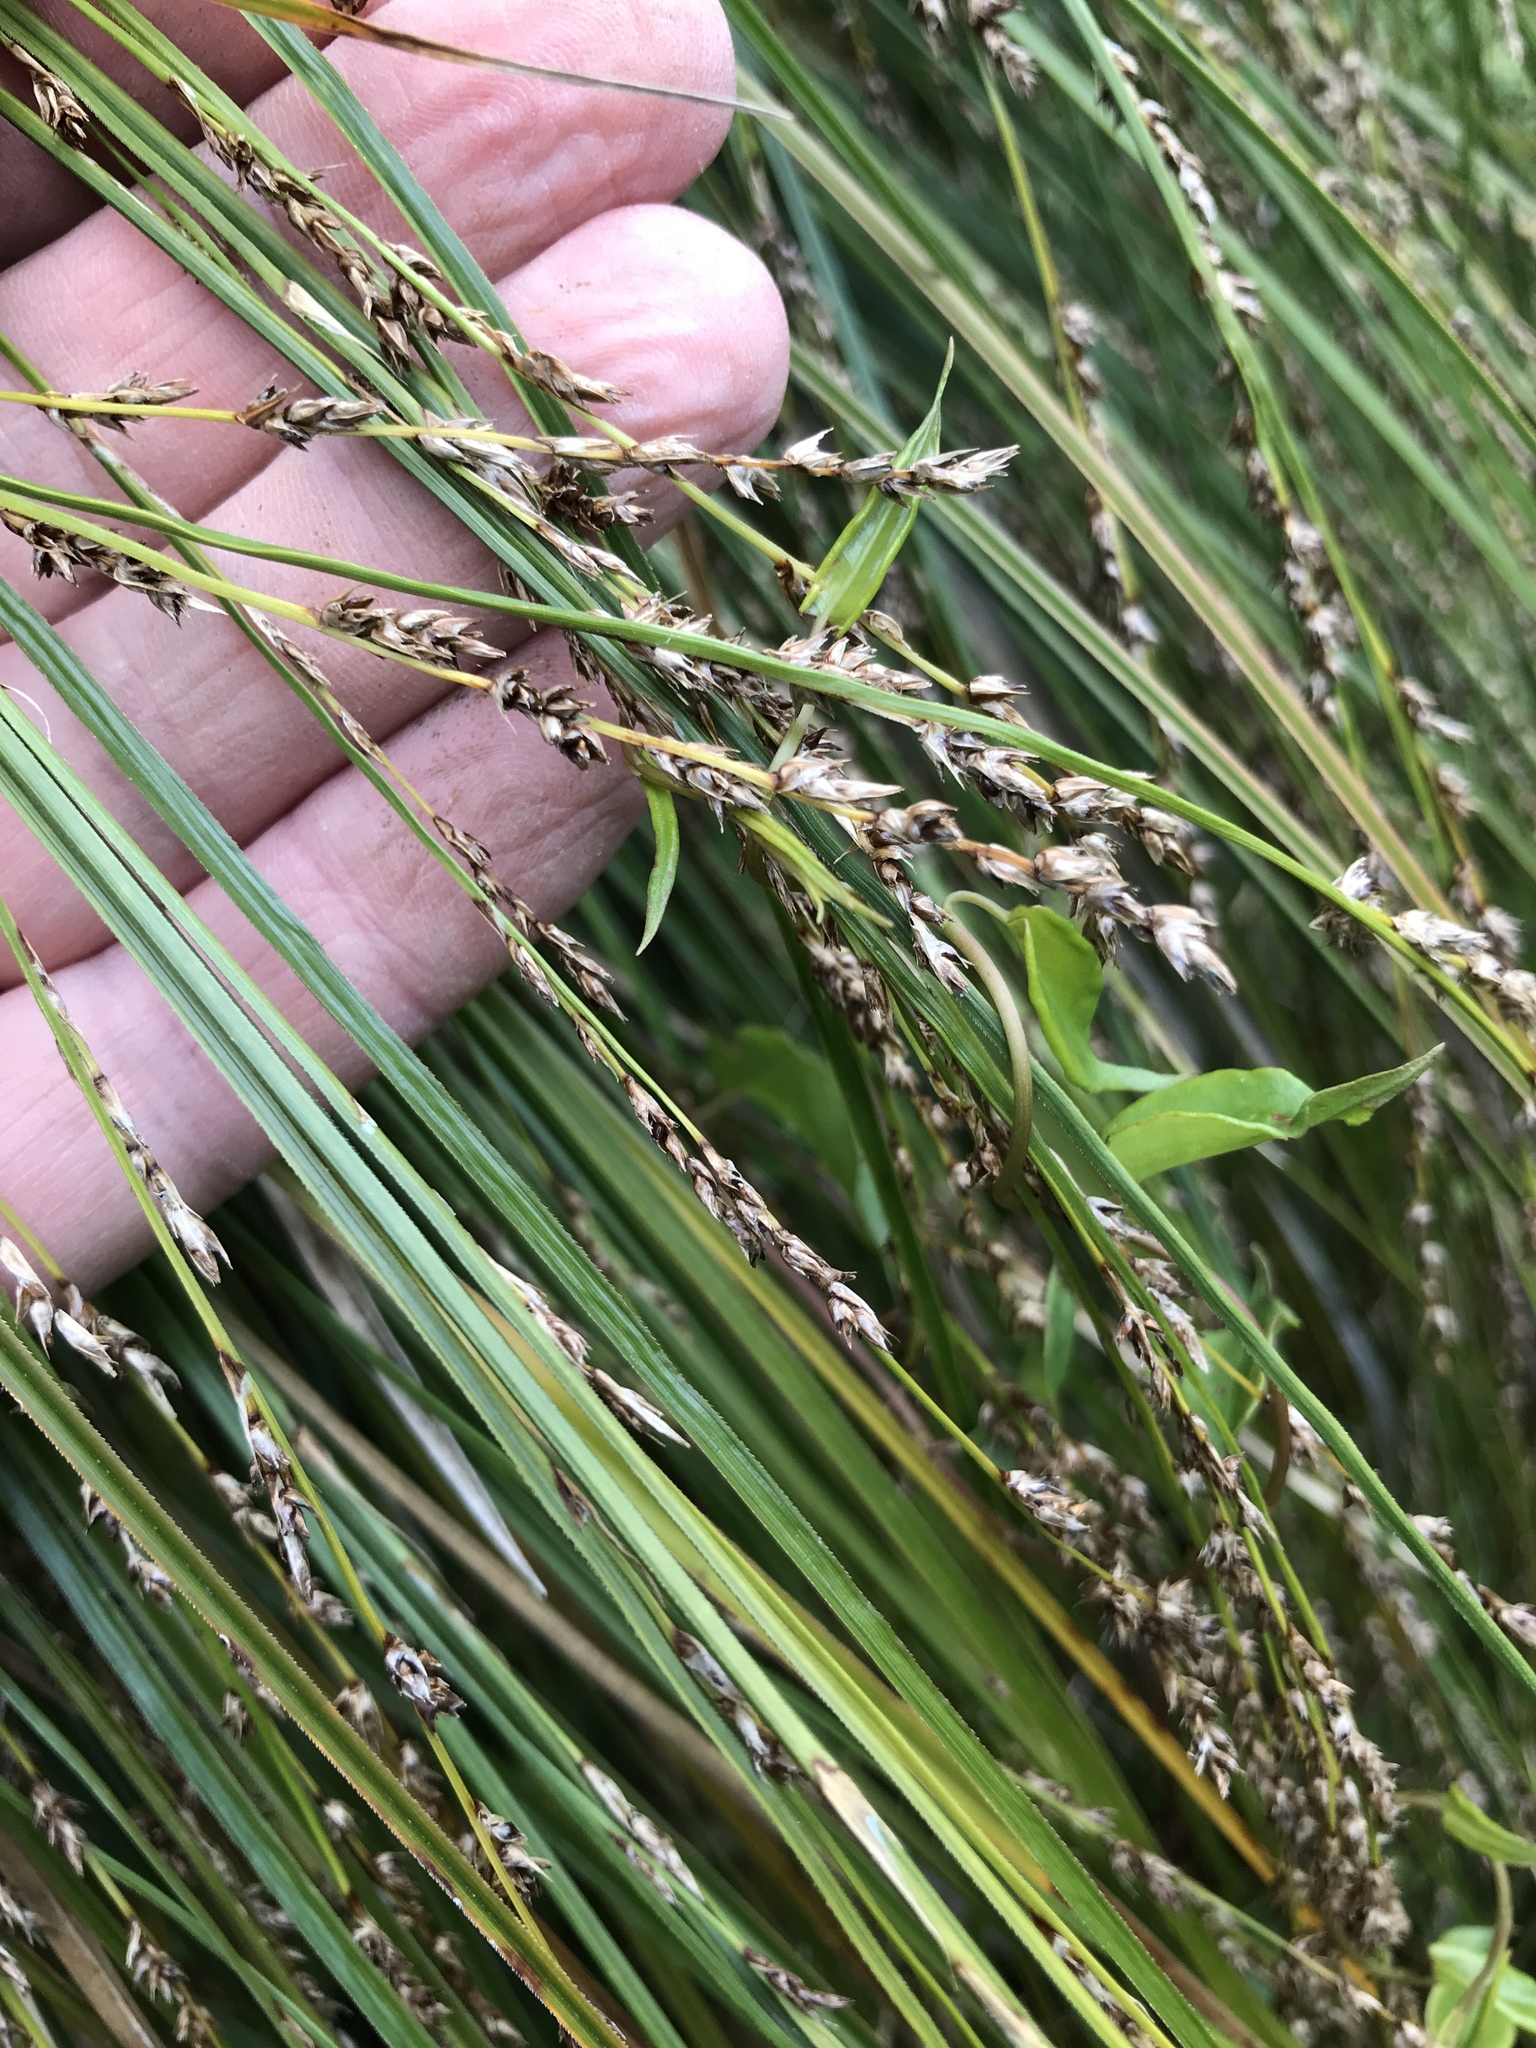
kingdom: Plantae
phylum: Tracheophyta
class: Liliopsida
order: Poales
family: Cyperaceae
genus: Carex
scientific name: Carex virgata
